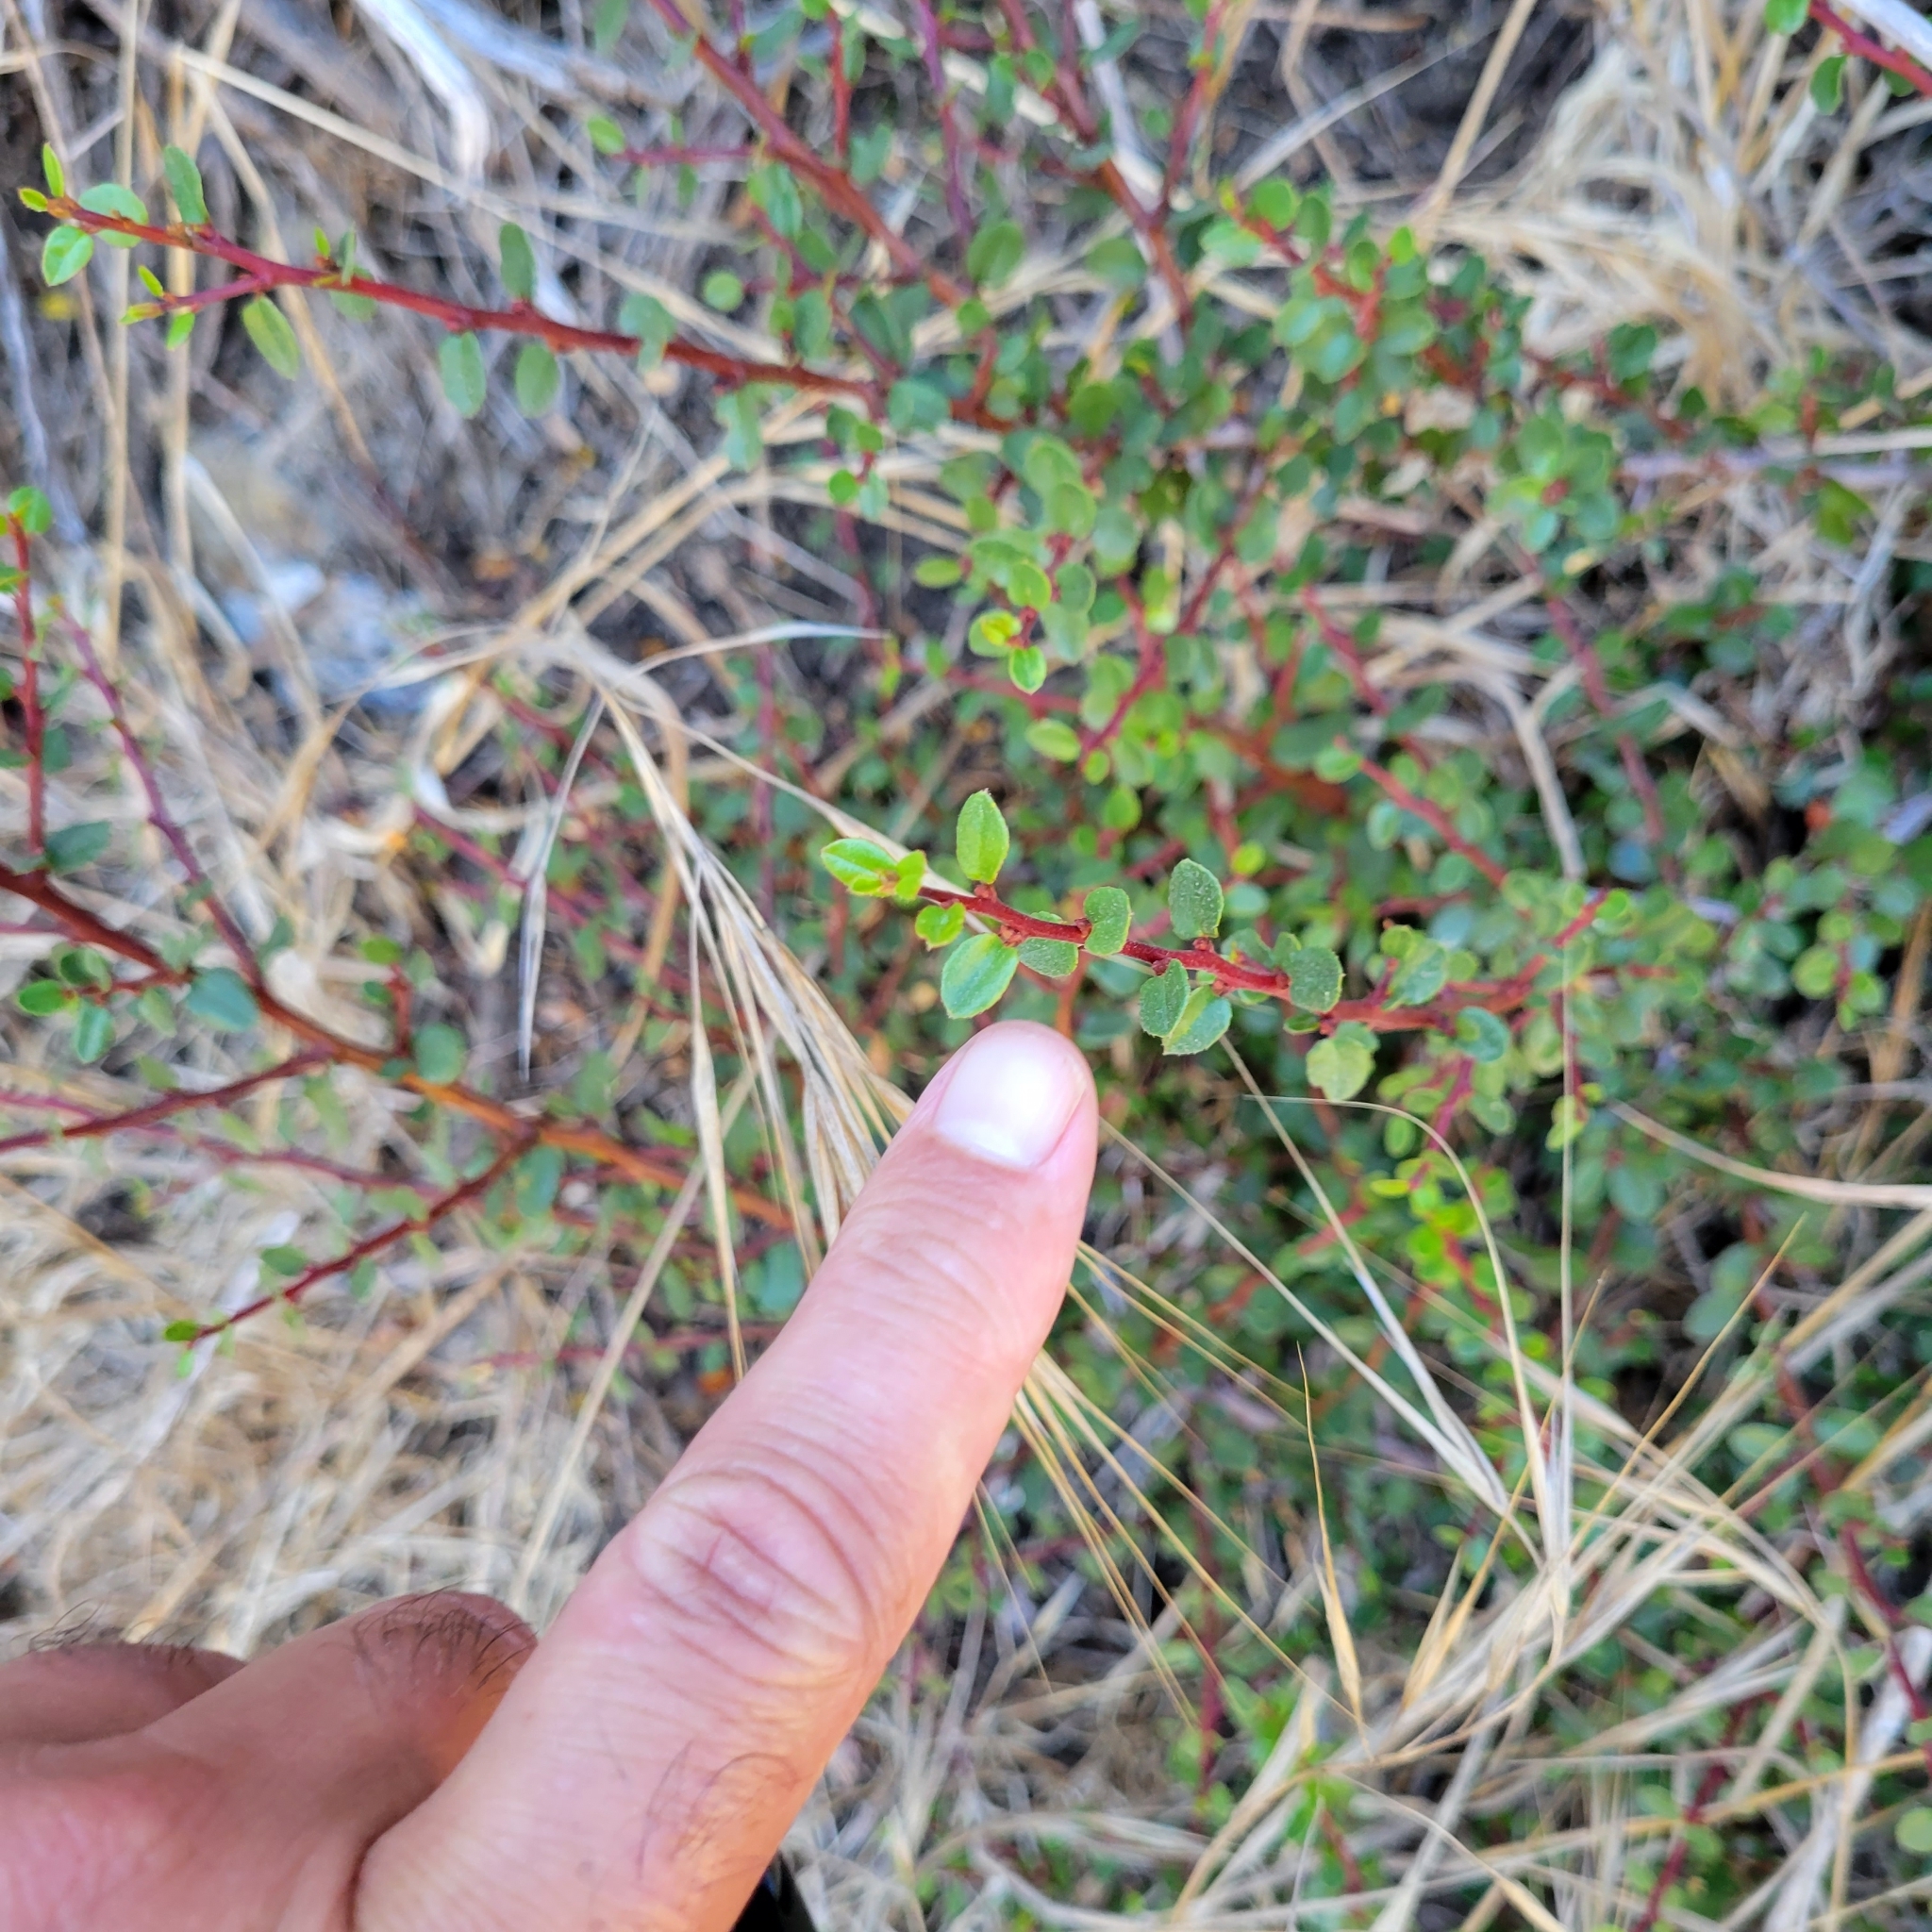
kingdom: Plantae
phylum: Tracheophyta
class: Magnoliopsida
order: Rosales
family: Rhamnaceae
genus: Endotropis
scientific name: Endotropis crocea
